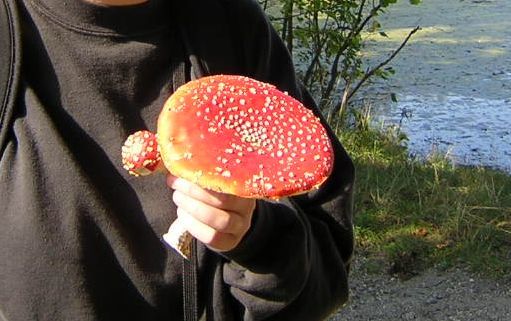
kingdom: Fungi
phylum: Basidiomycota
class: Agaricomycetes
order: Agaricales
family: Amanitaceae
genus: Amanita
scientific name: Amanita muscaria
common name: Fly agaric
